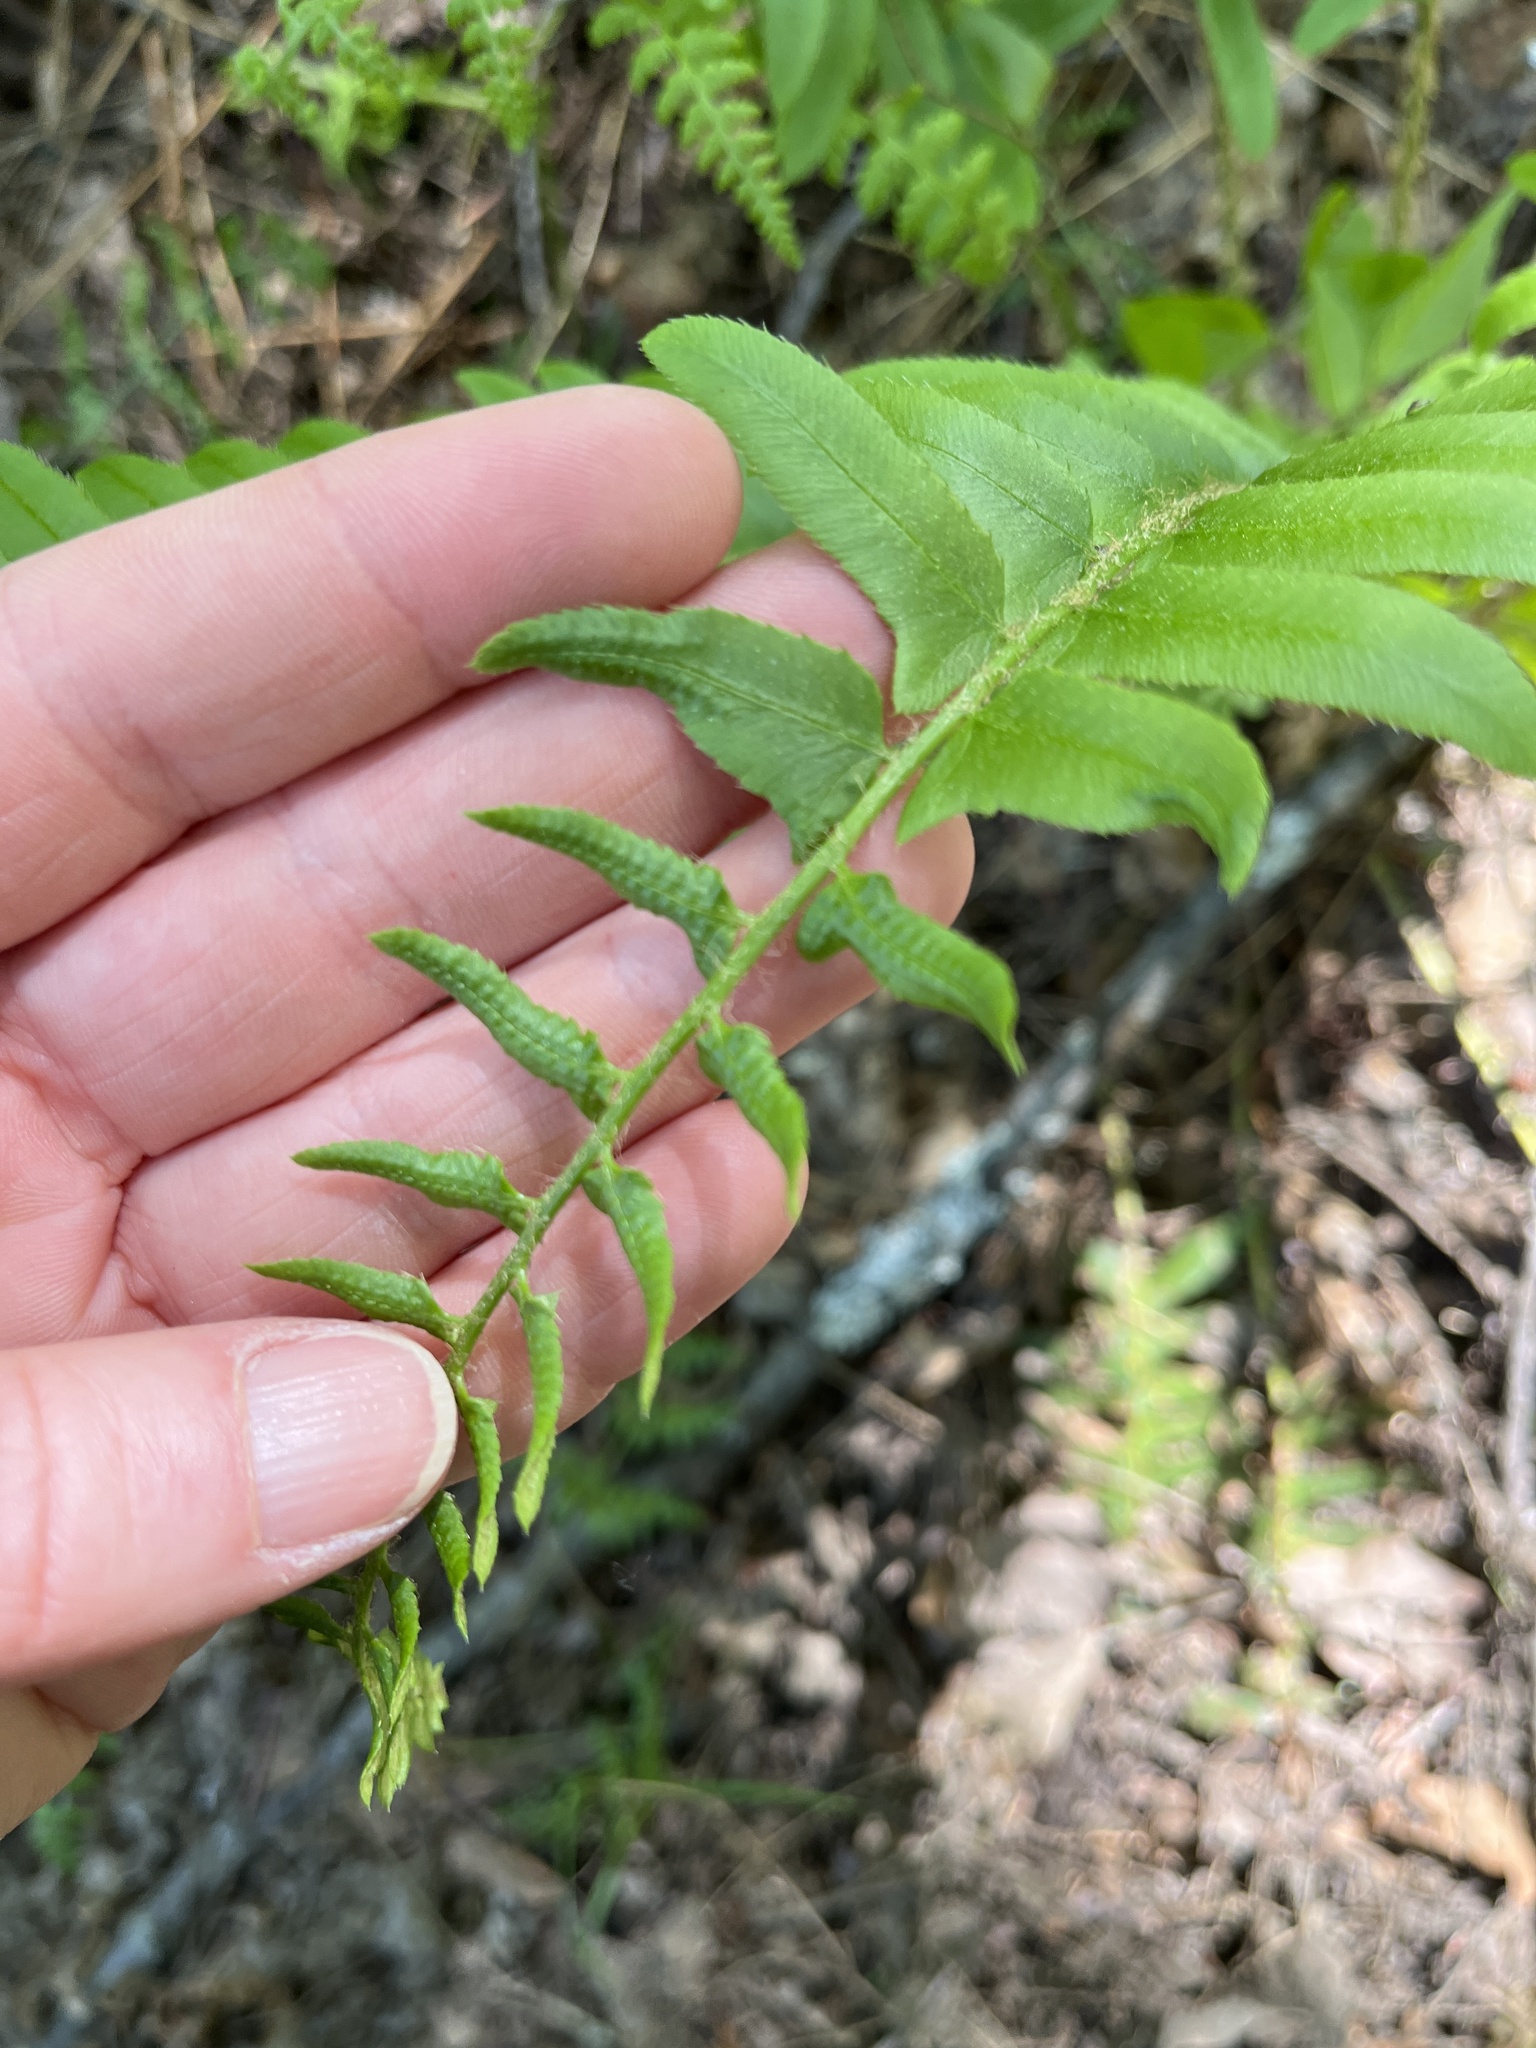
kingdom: Plantae
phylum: Tracheophyta
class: Polypodiopsida
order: Polypodiales
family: Dryopteridaceae
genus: Polystichum
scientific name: Polystichum acrostichoides
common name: Christmas fern
